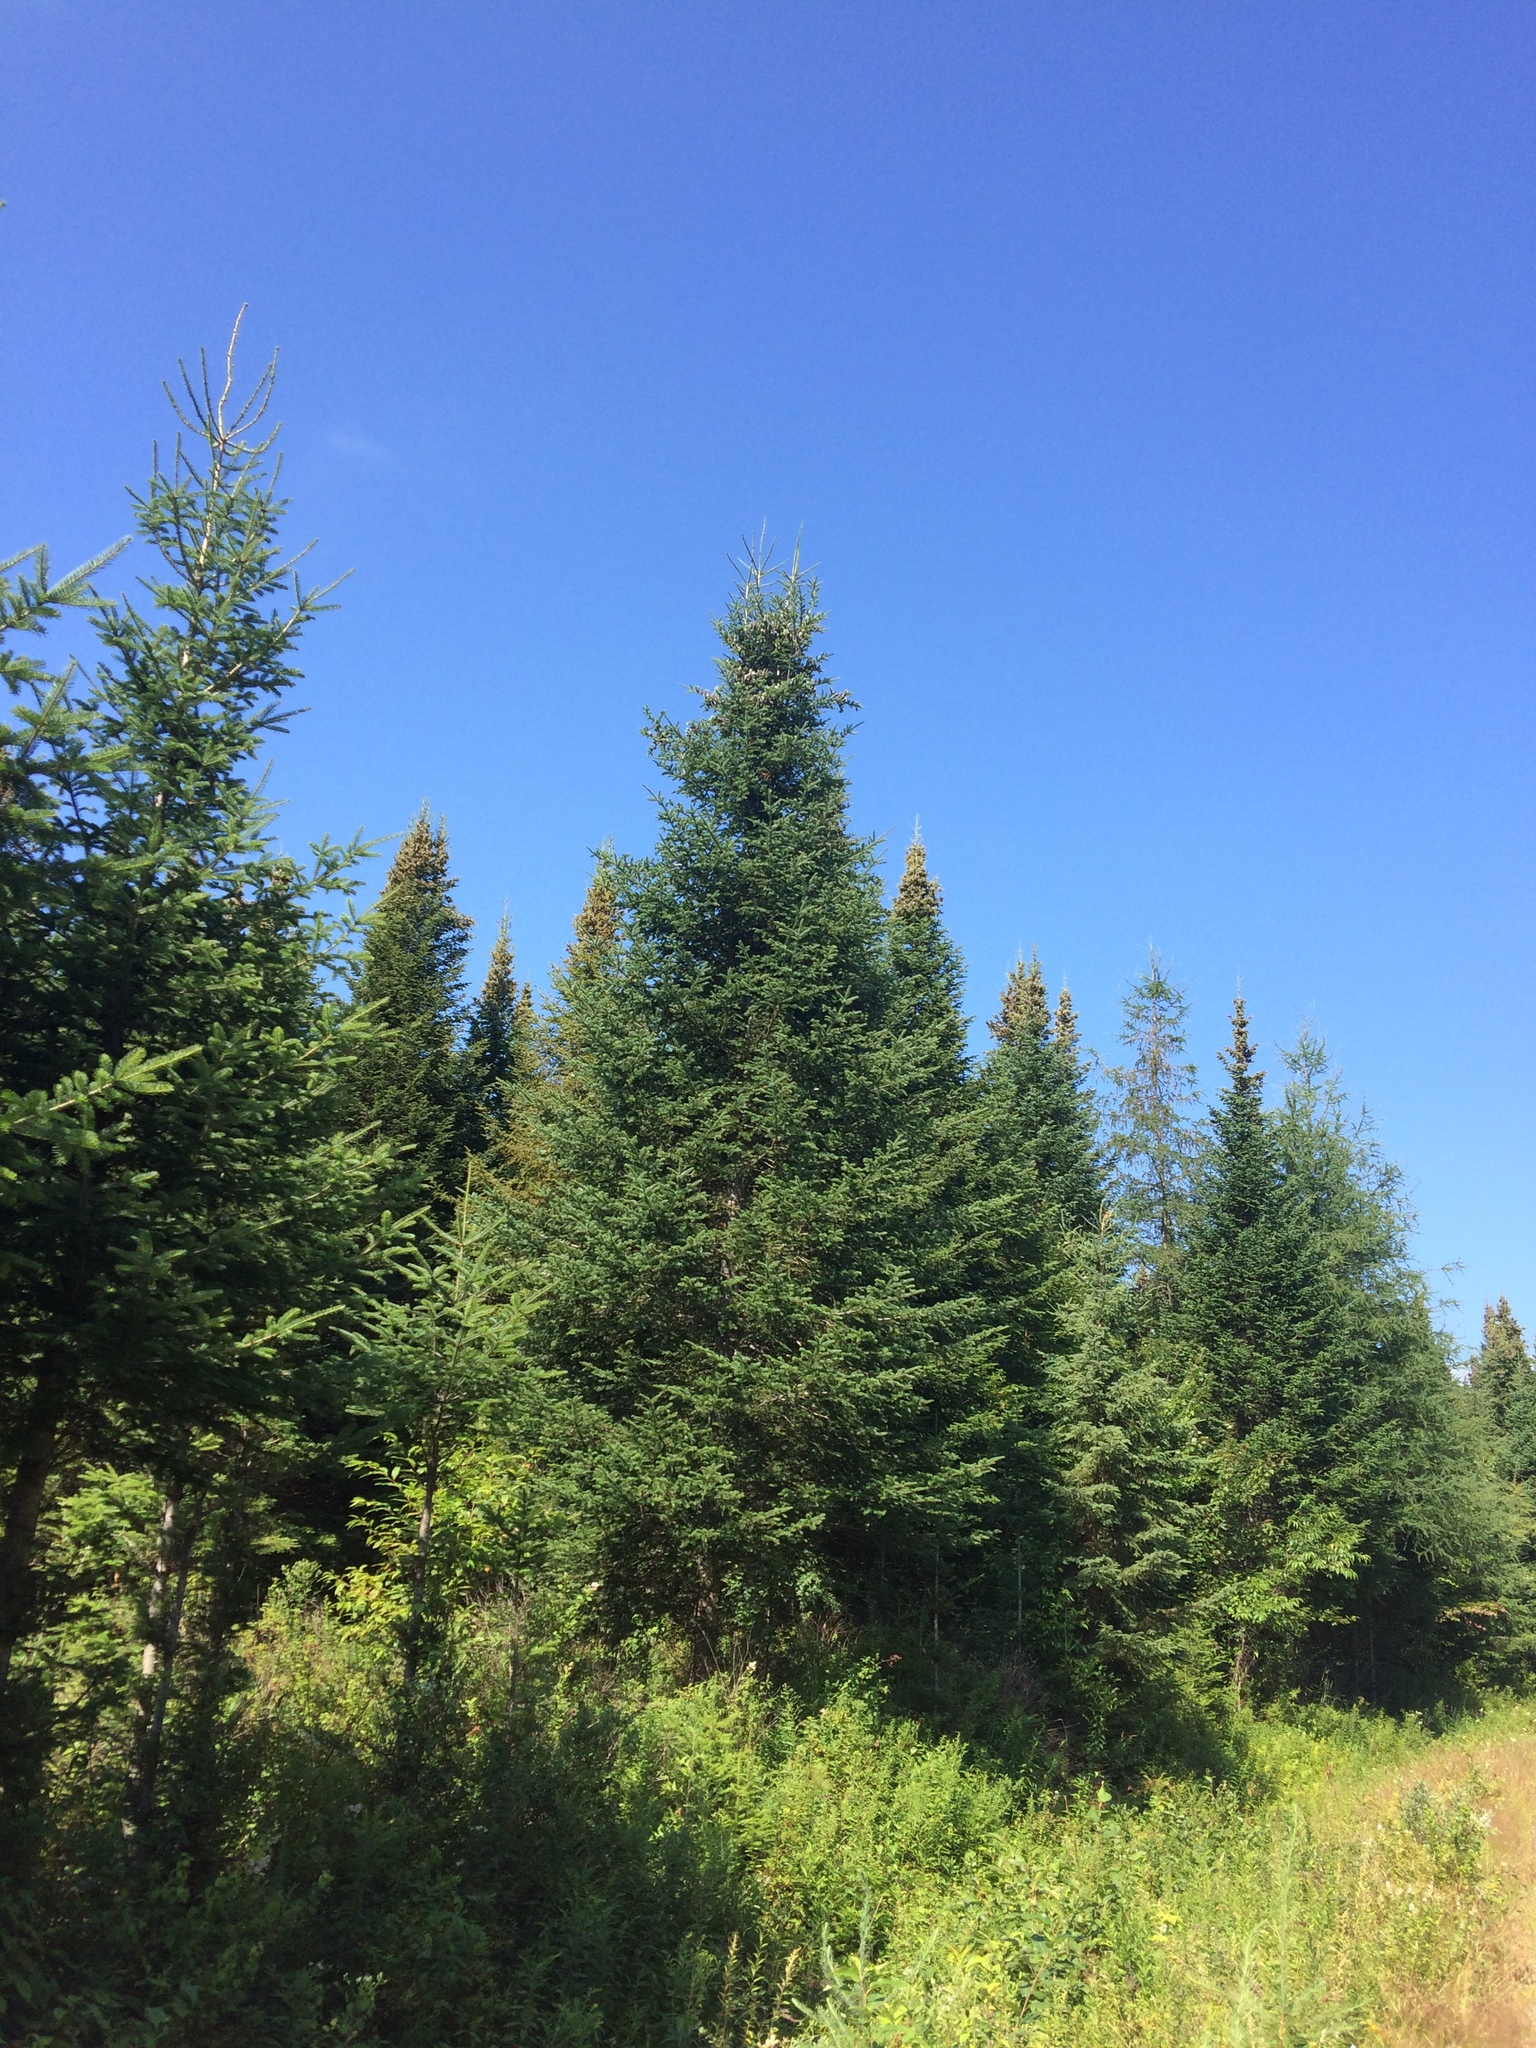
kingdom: Plantae
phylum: Tracheophyta
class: Pinopsida
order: Pinales
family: Pinaceae
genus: Abies
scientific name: Abies balsamea
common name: Balsam fir
